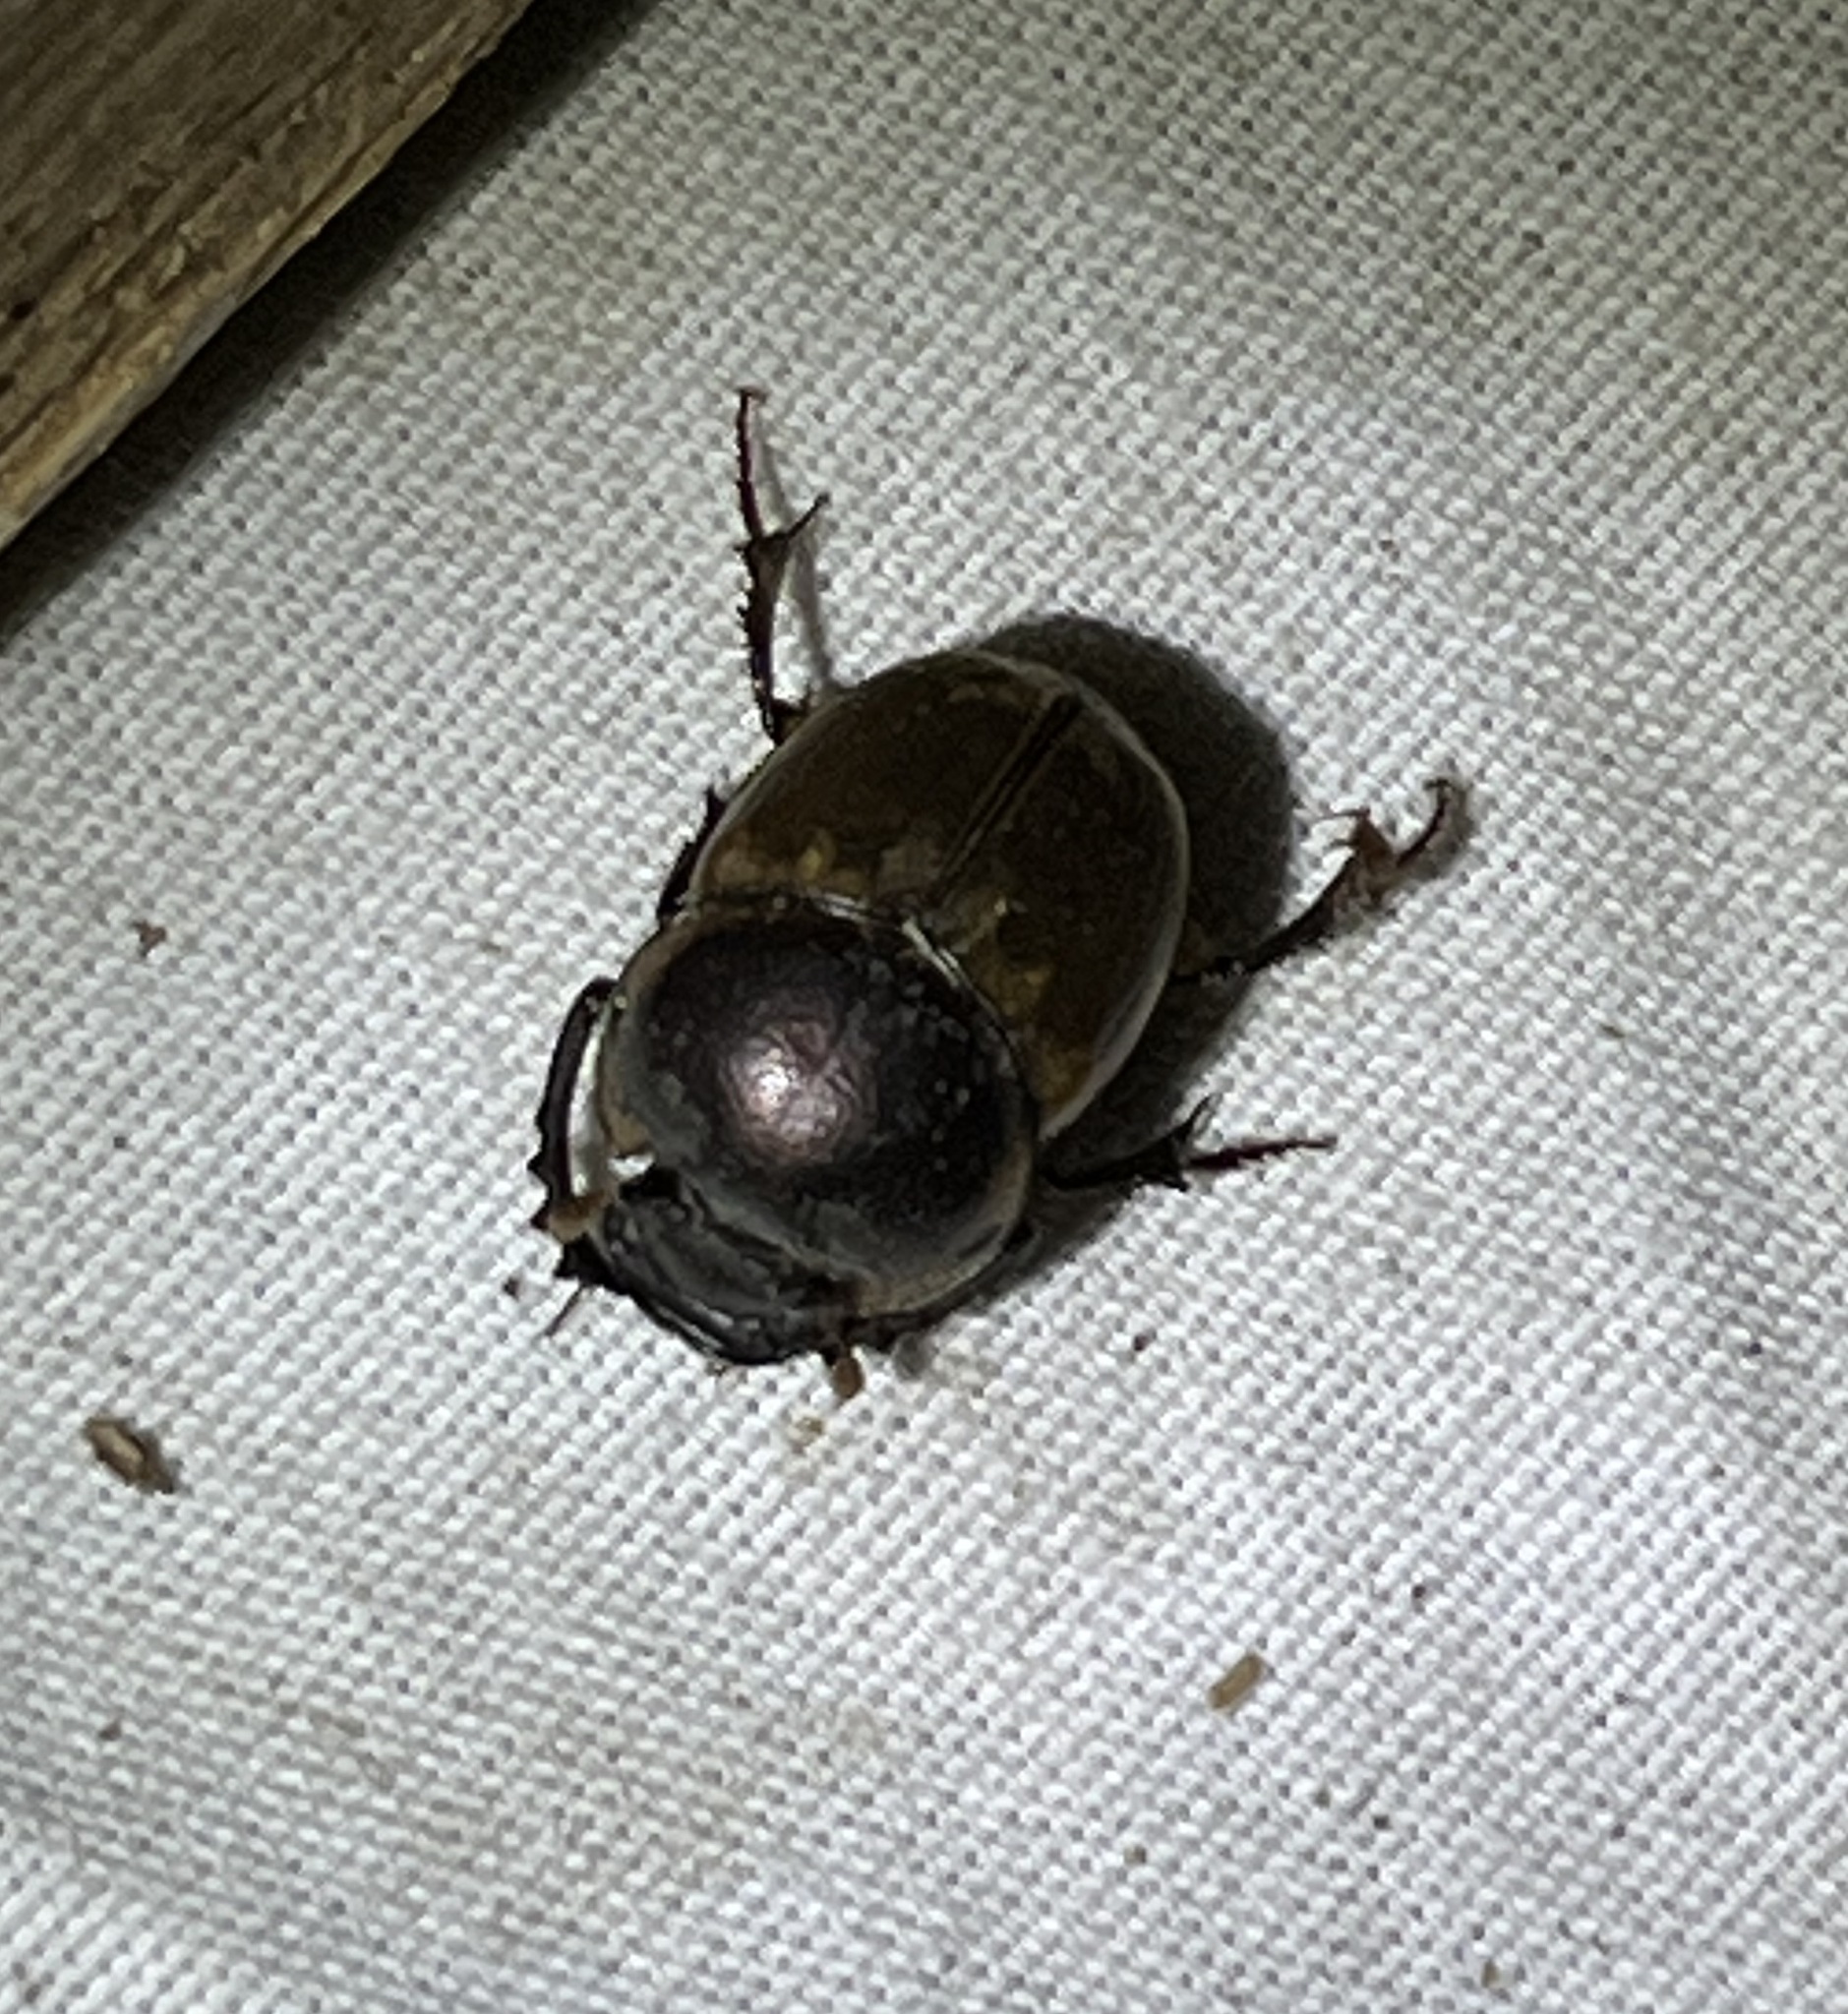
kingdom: Animalia
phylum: Arthropoda
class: Insecta
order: Coleoptera
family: Scarabaeidae
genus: Digitonthophagus
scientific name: Digitonthophagus gazella
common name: Brown dung beetle
